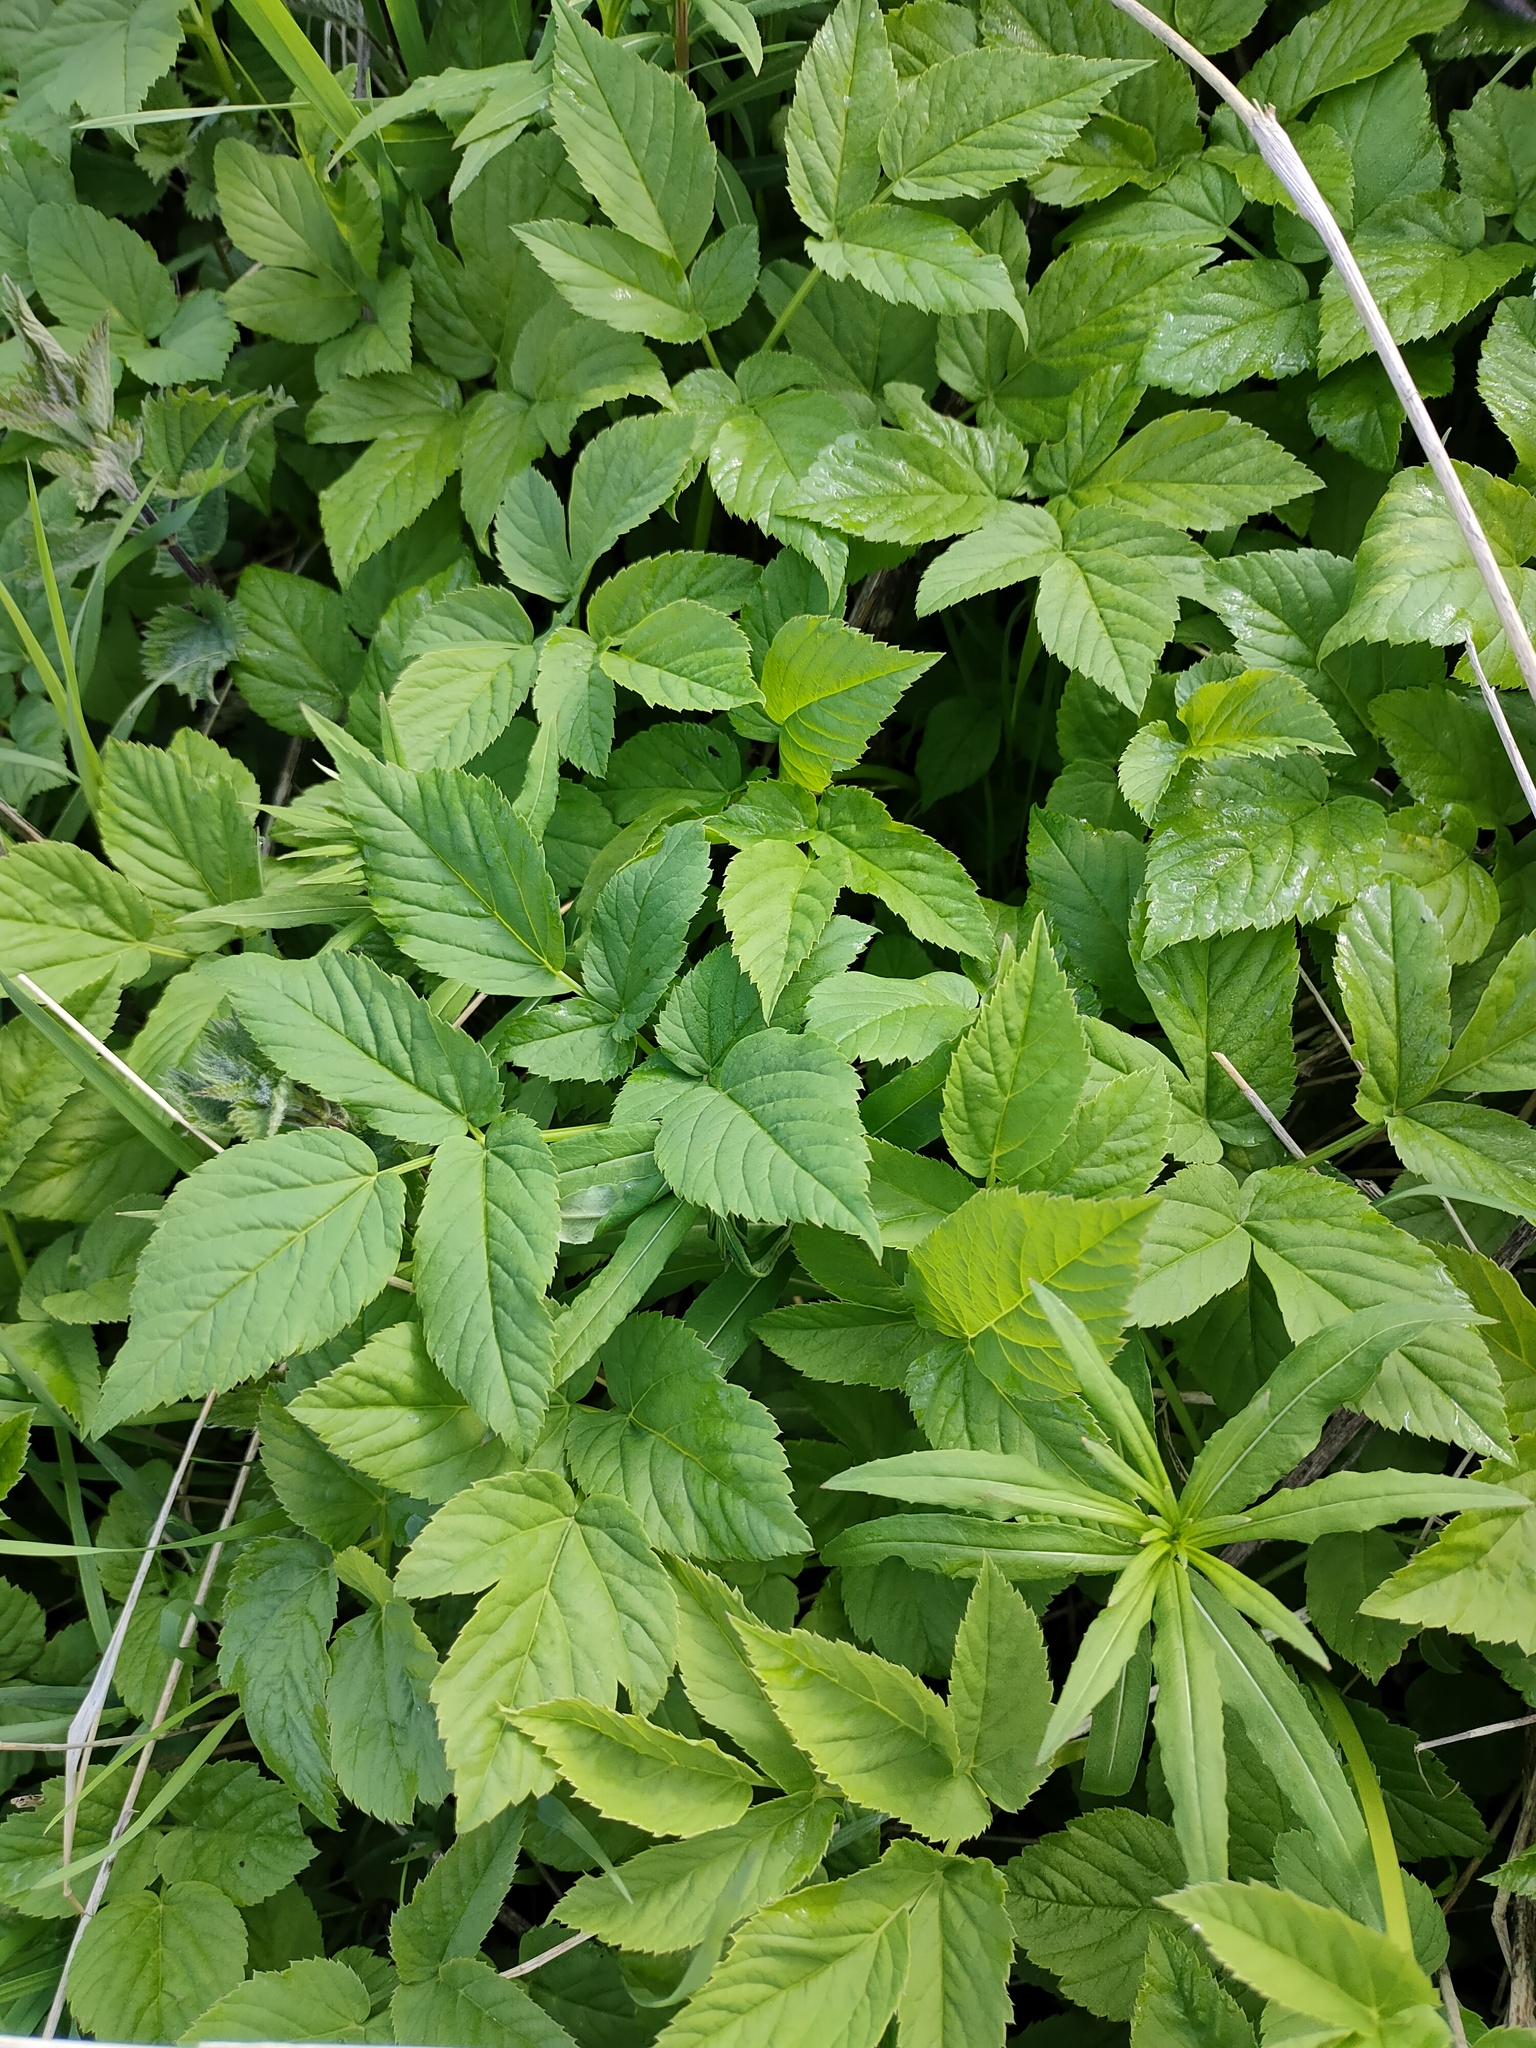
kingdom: Plantae
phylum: Tracheophyta
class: Magnoliopsida
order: Apiales
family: Apiaceae
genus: Aegopodium
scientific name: Aegopodium podagraria
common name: Ground-elder
